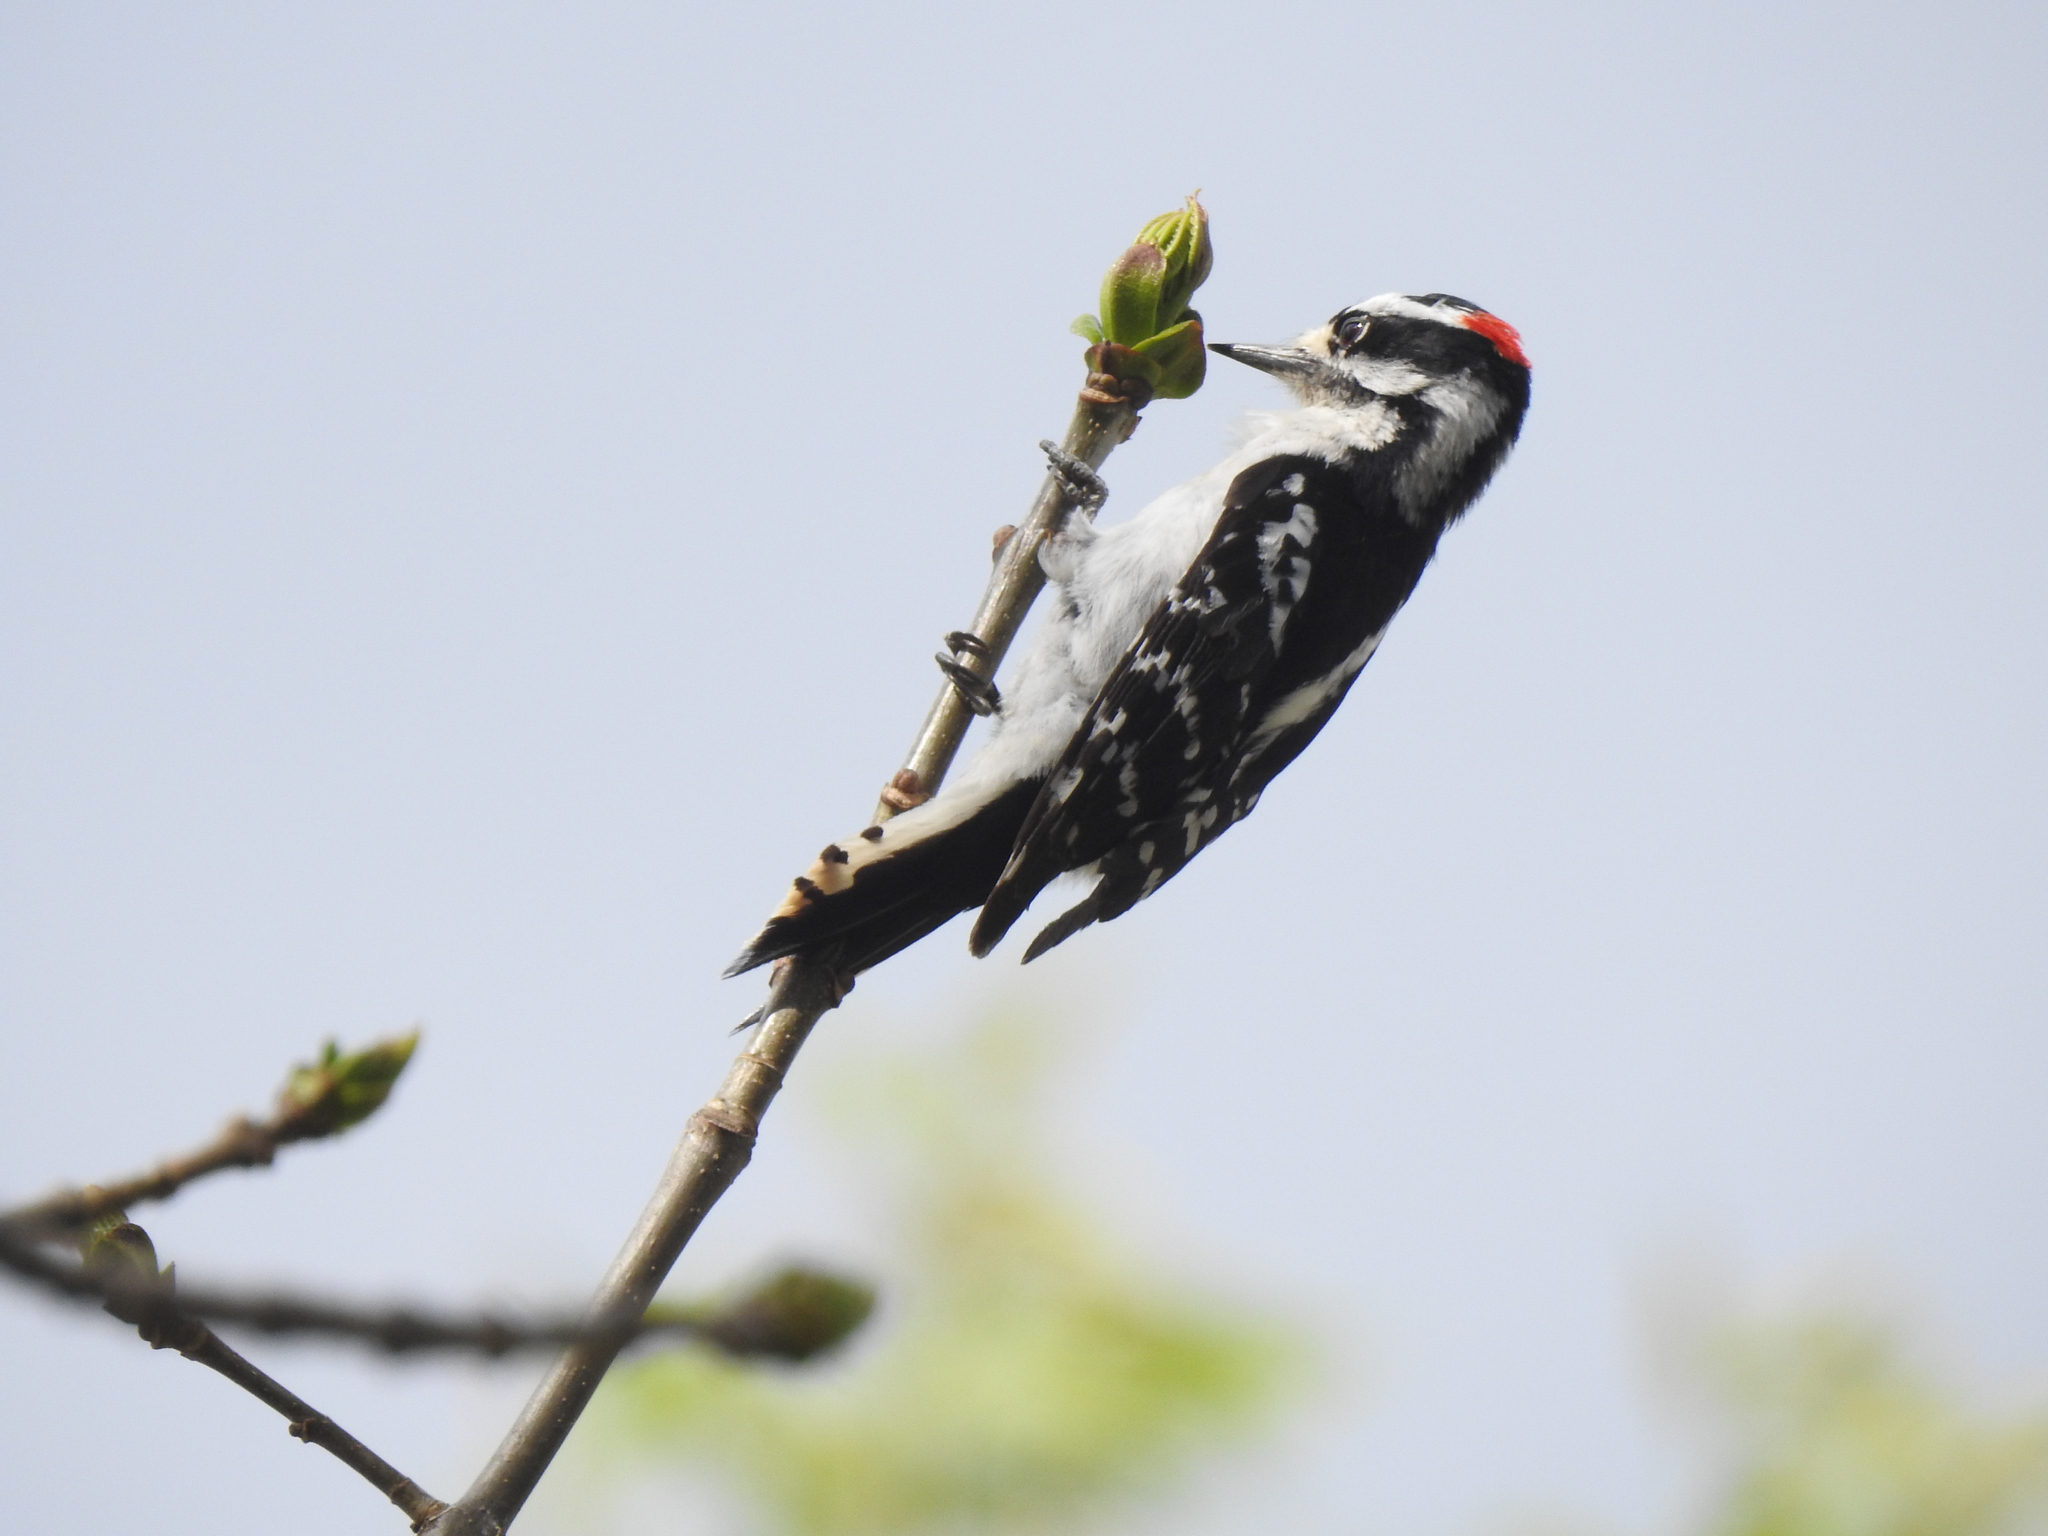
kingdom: Animalia
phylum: Chordata
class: Aves
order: Piciformes
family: Picidae
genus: Dryobates
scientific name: Dryobates pubescens
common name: Downy woodpecker
